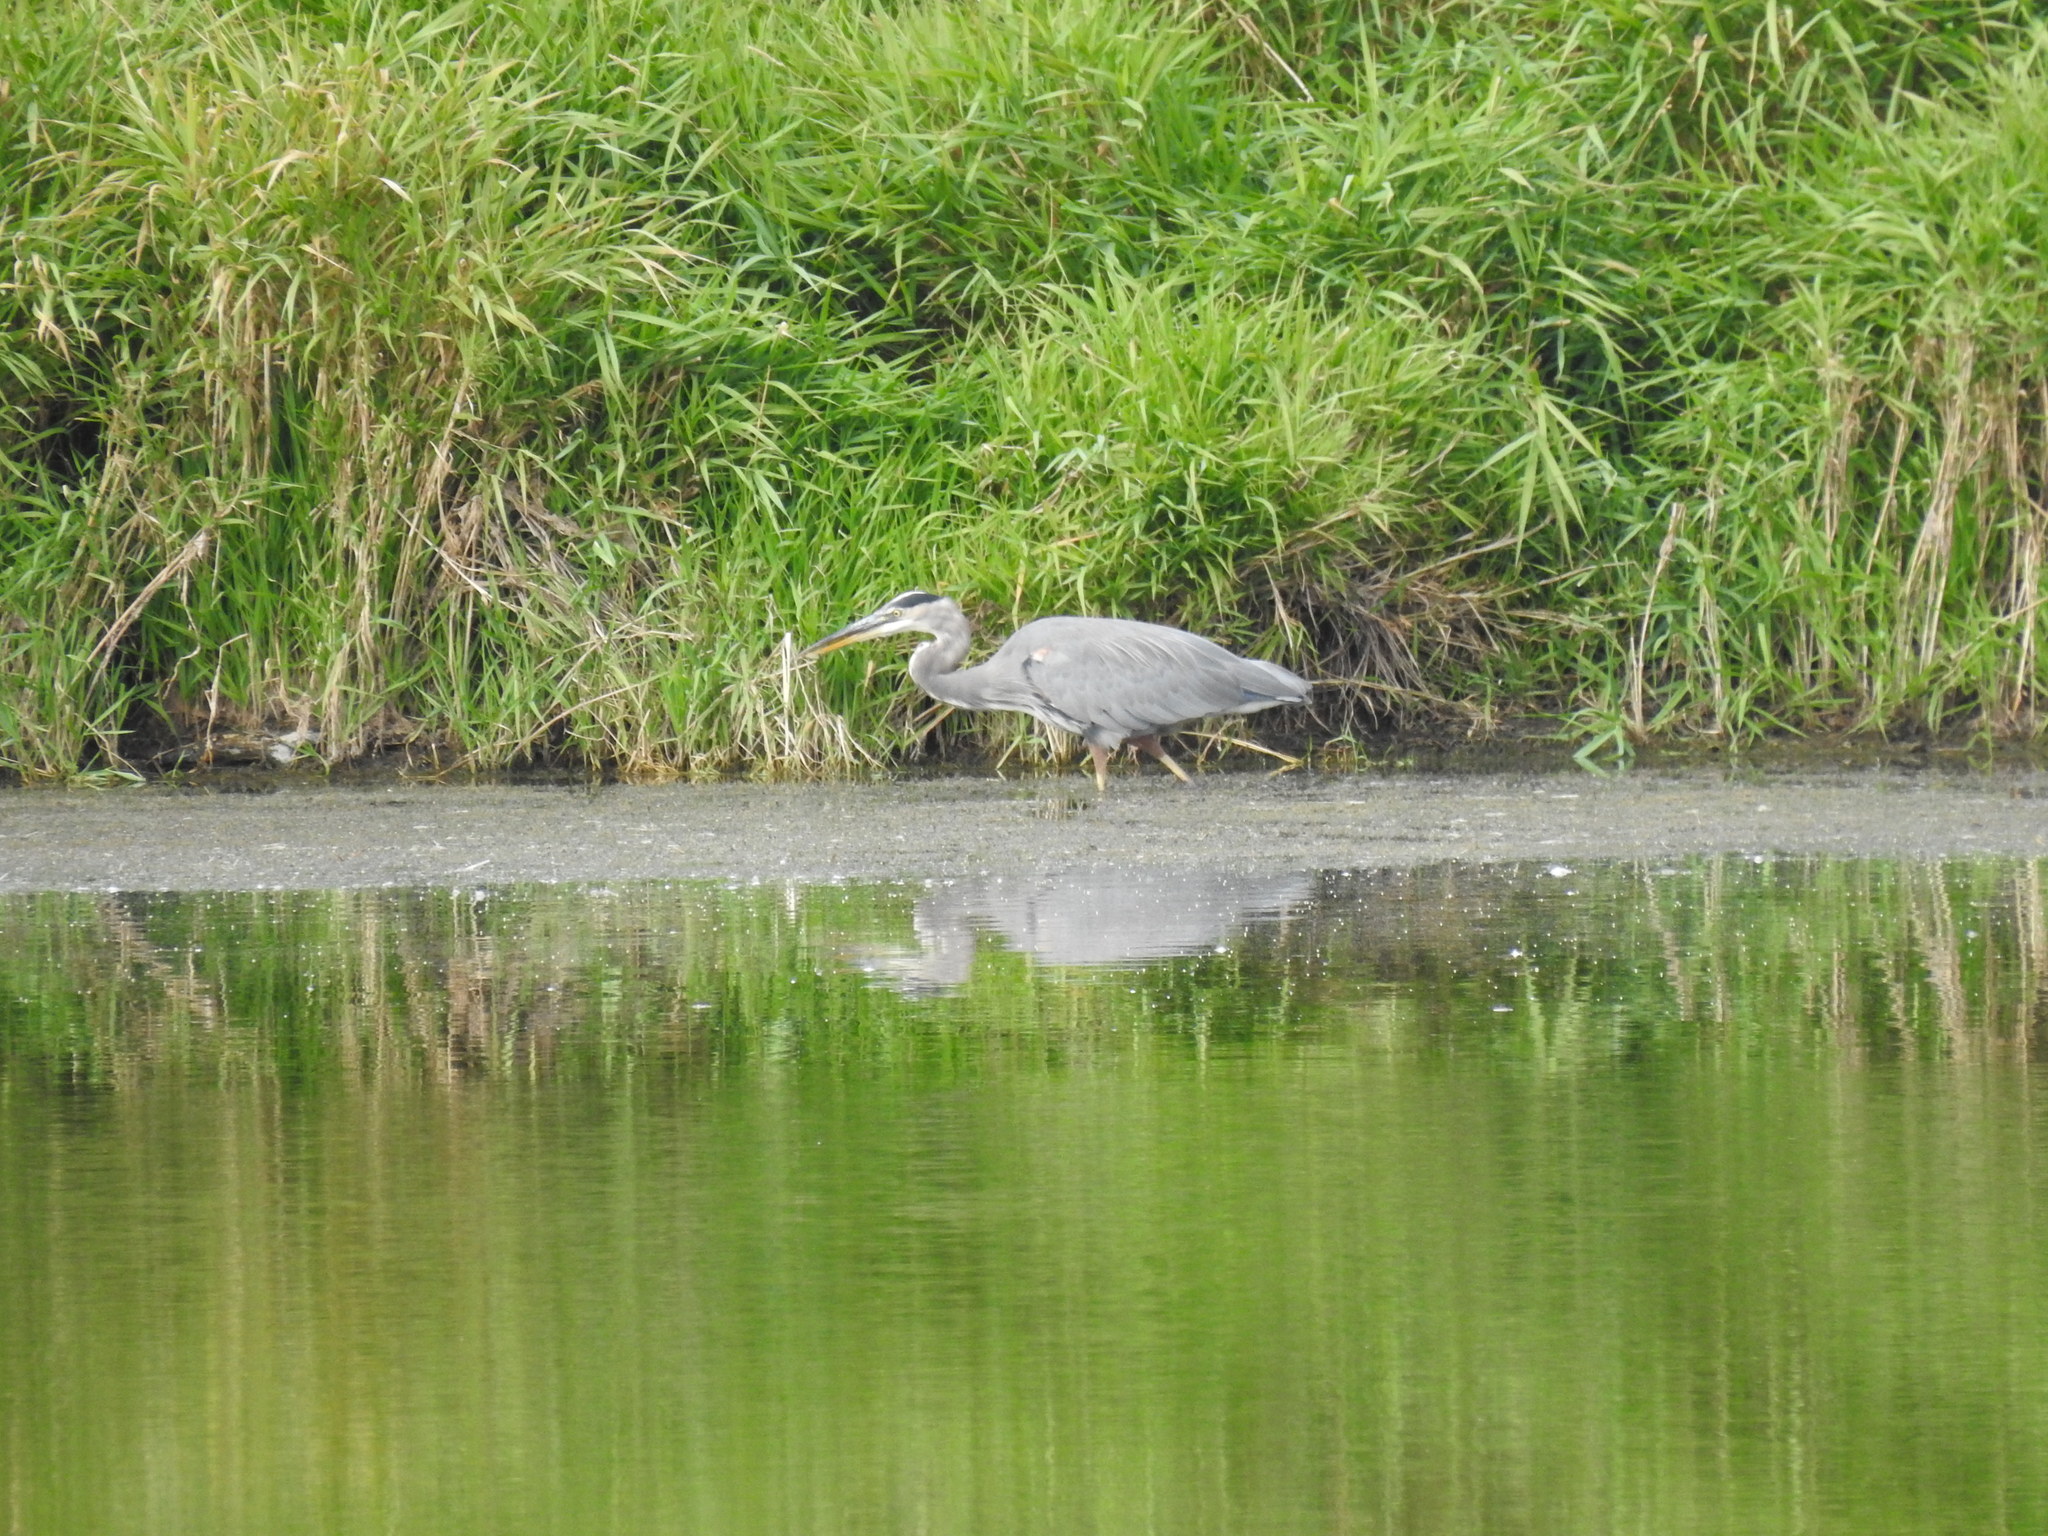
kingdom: Animalia
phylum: Chordata
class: Aves
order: Pelecaniformes
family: Ardeidae
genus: Ardea
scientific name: Ardea herodias
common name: Great blue heron
